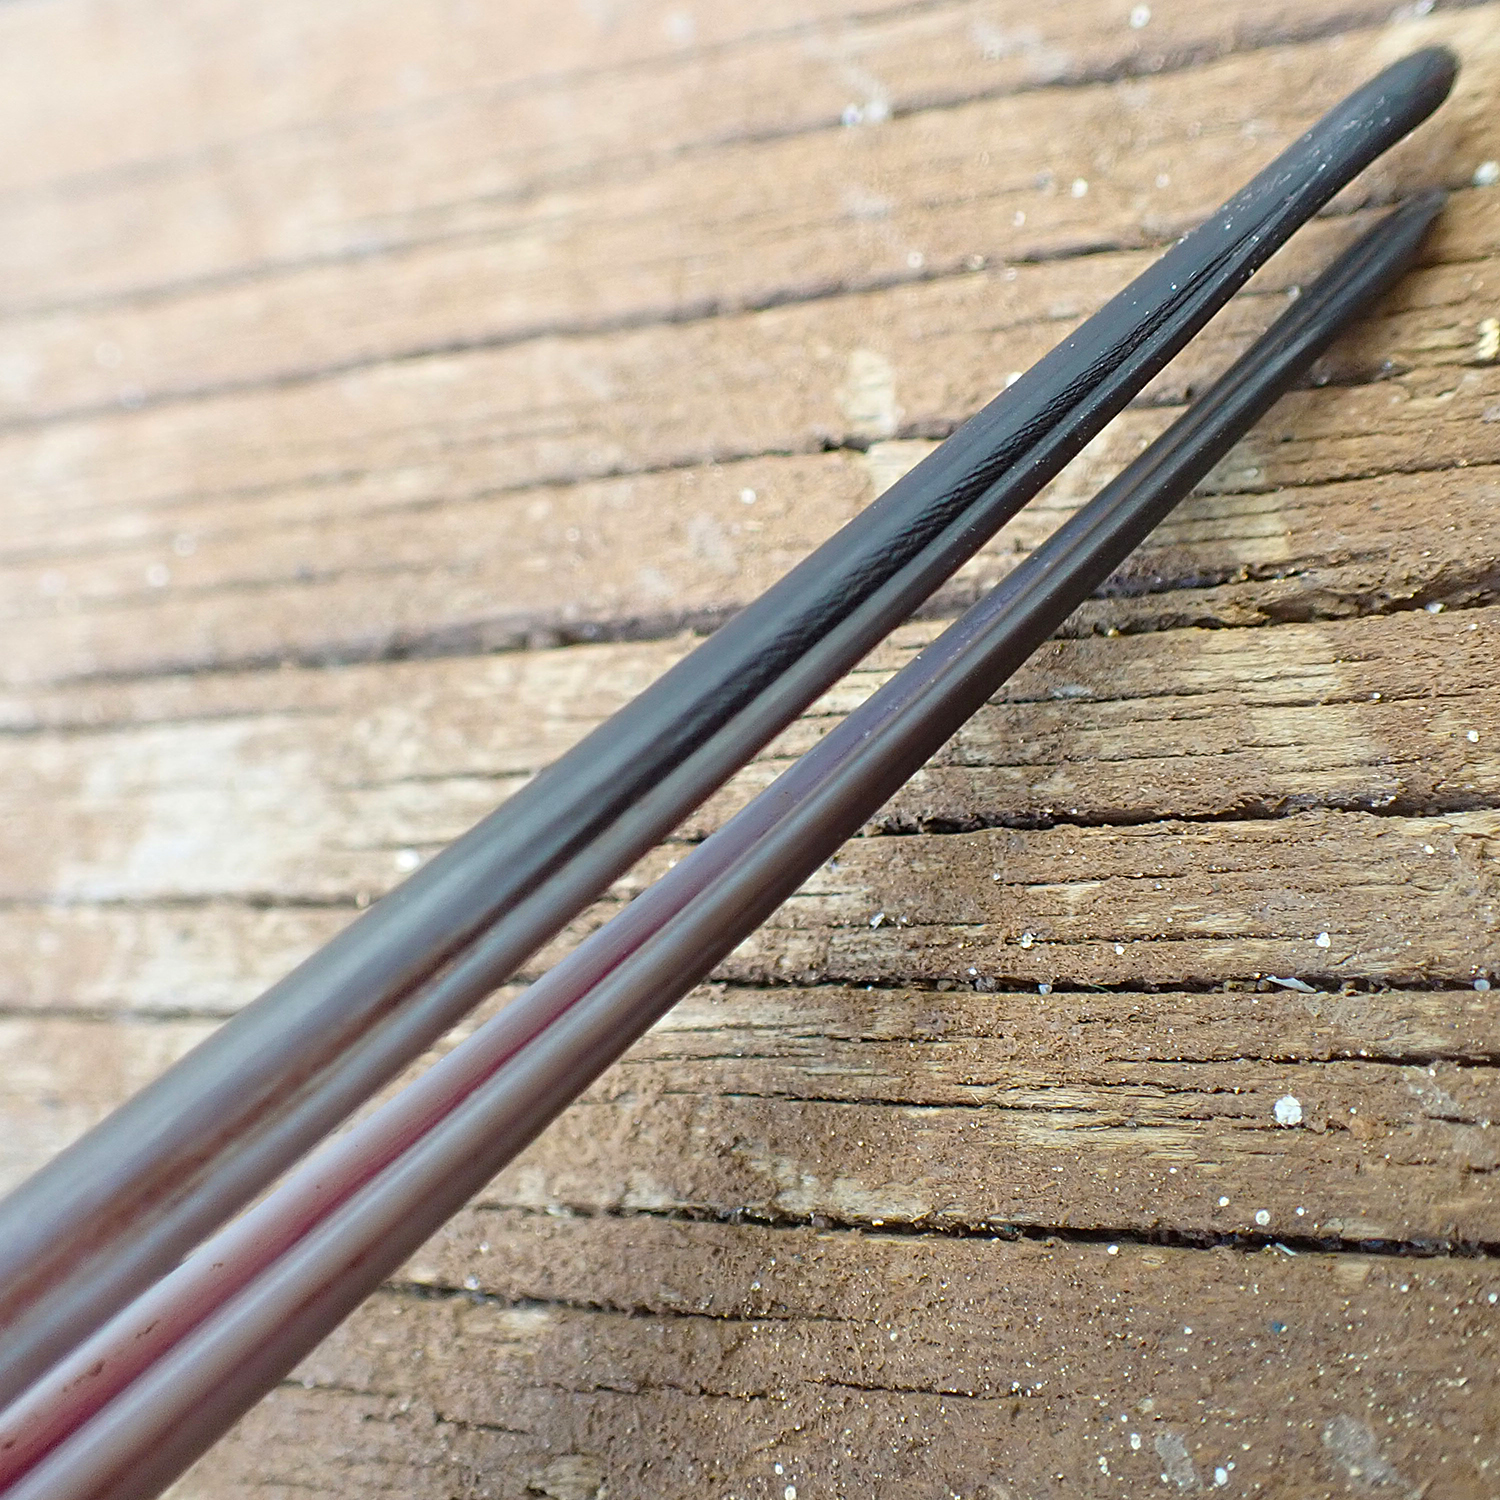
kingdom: Animalia
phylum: Chordata
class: Aves
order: Charadriiformes
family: Scolopacidae
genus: Limosa
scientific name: Limosa lapponica
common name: Bar-tailed godwit
